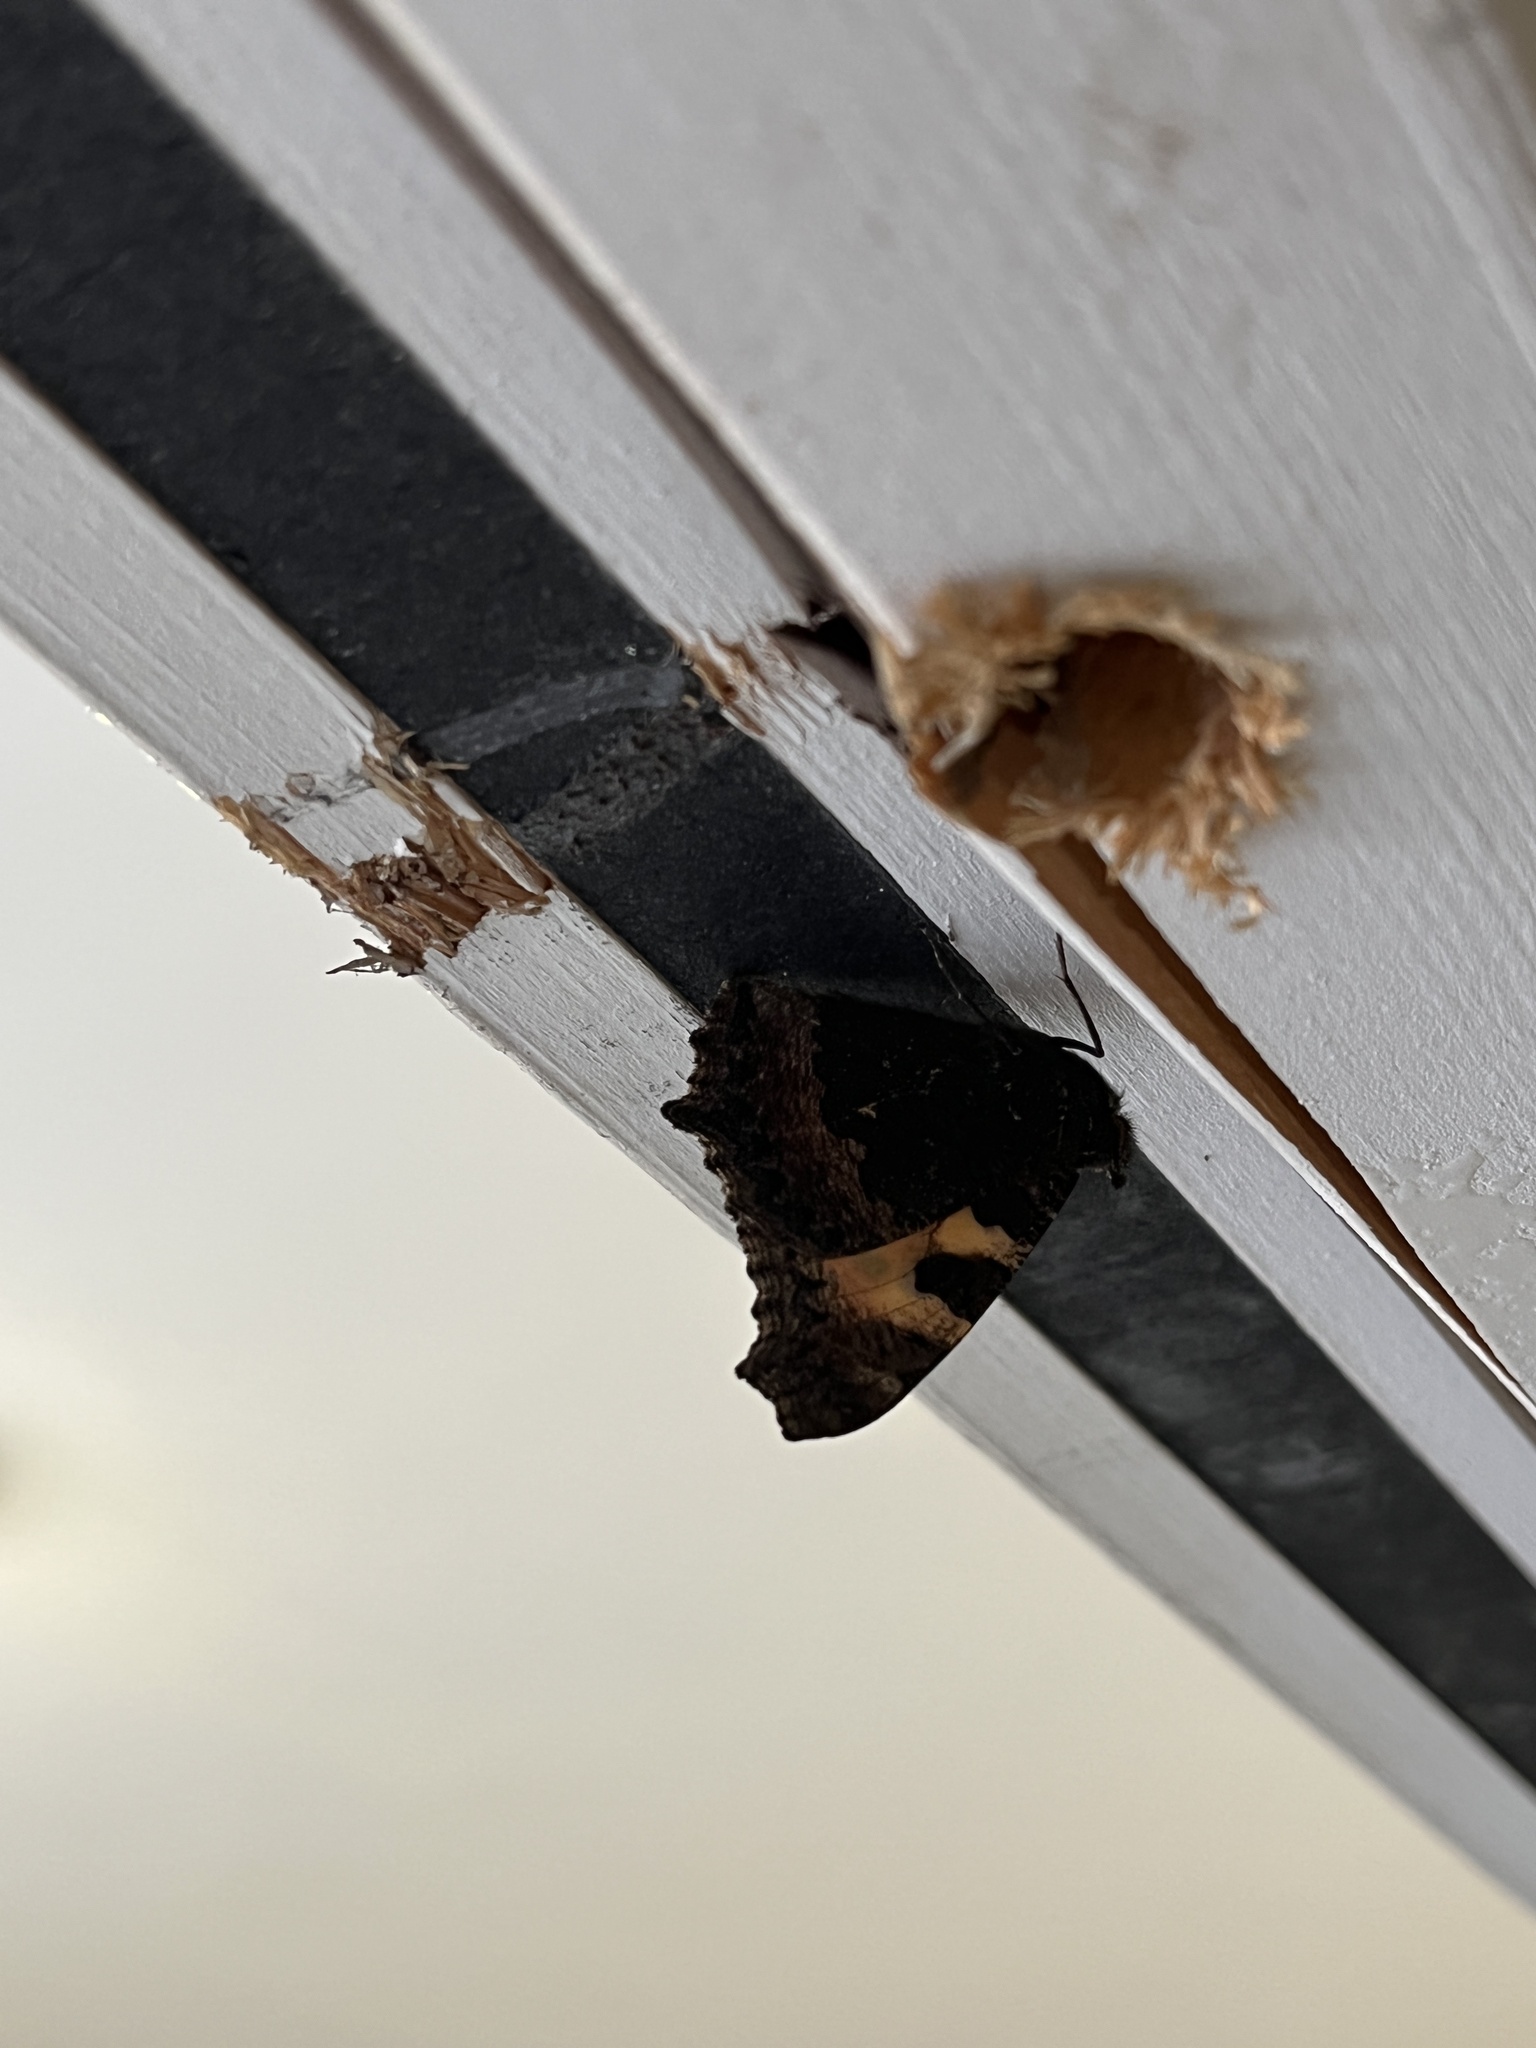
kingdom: Animalia
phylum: Arthropoda
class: Insecta
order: Lepidoptera
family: Nymphalidae
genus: Aglais
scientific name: Aglais urticae
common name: Small tortoiseshell
